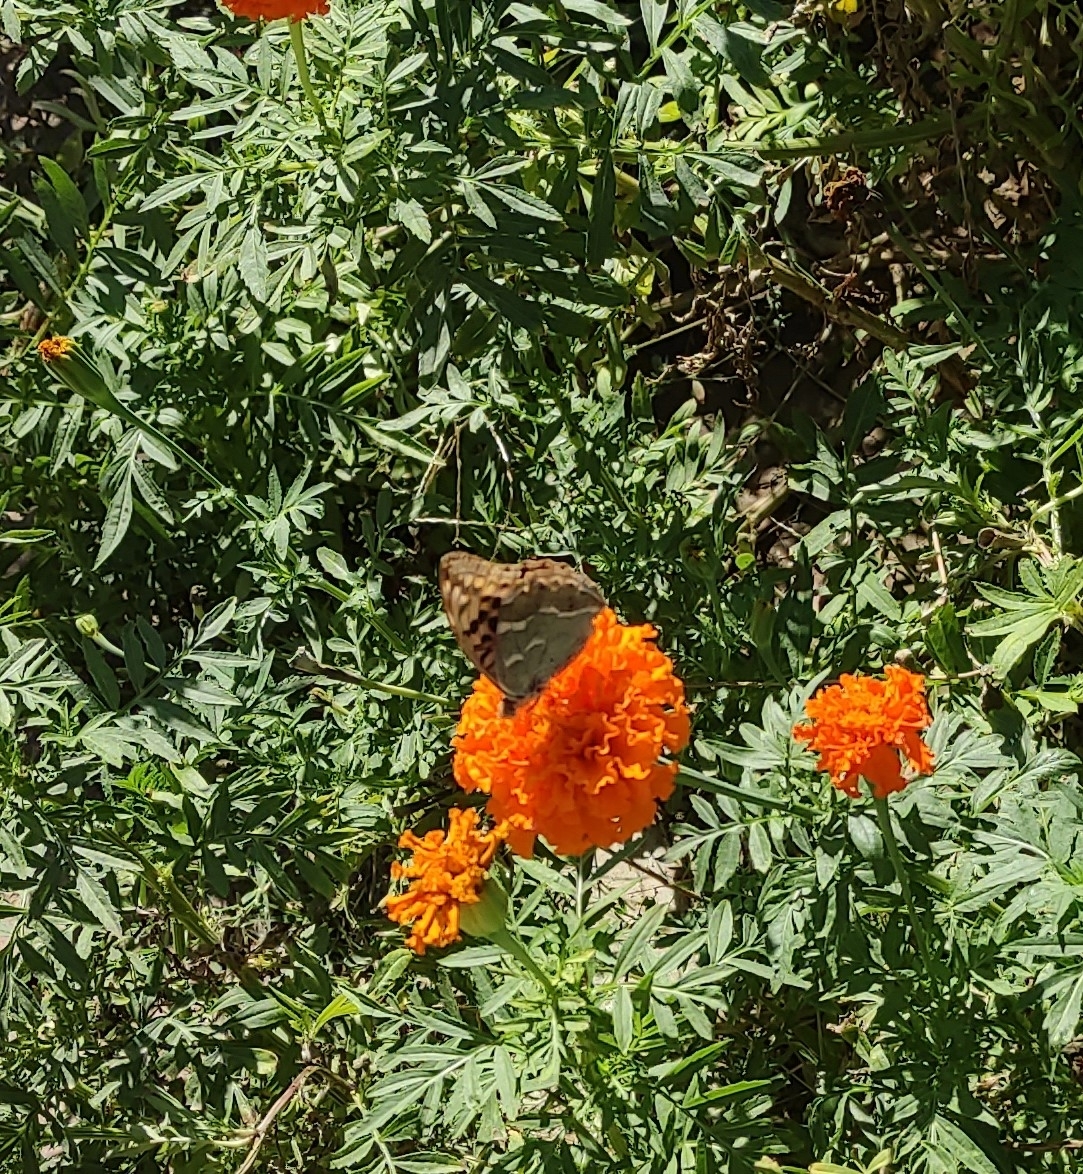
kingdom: Animalia
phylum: Arthropoda
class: Insecta
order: Lepidoptera
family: Nymphalidae
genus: Damora
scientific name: Damora pandora
